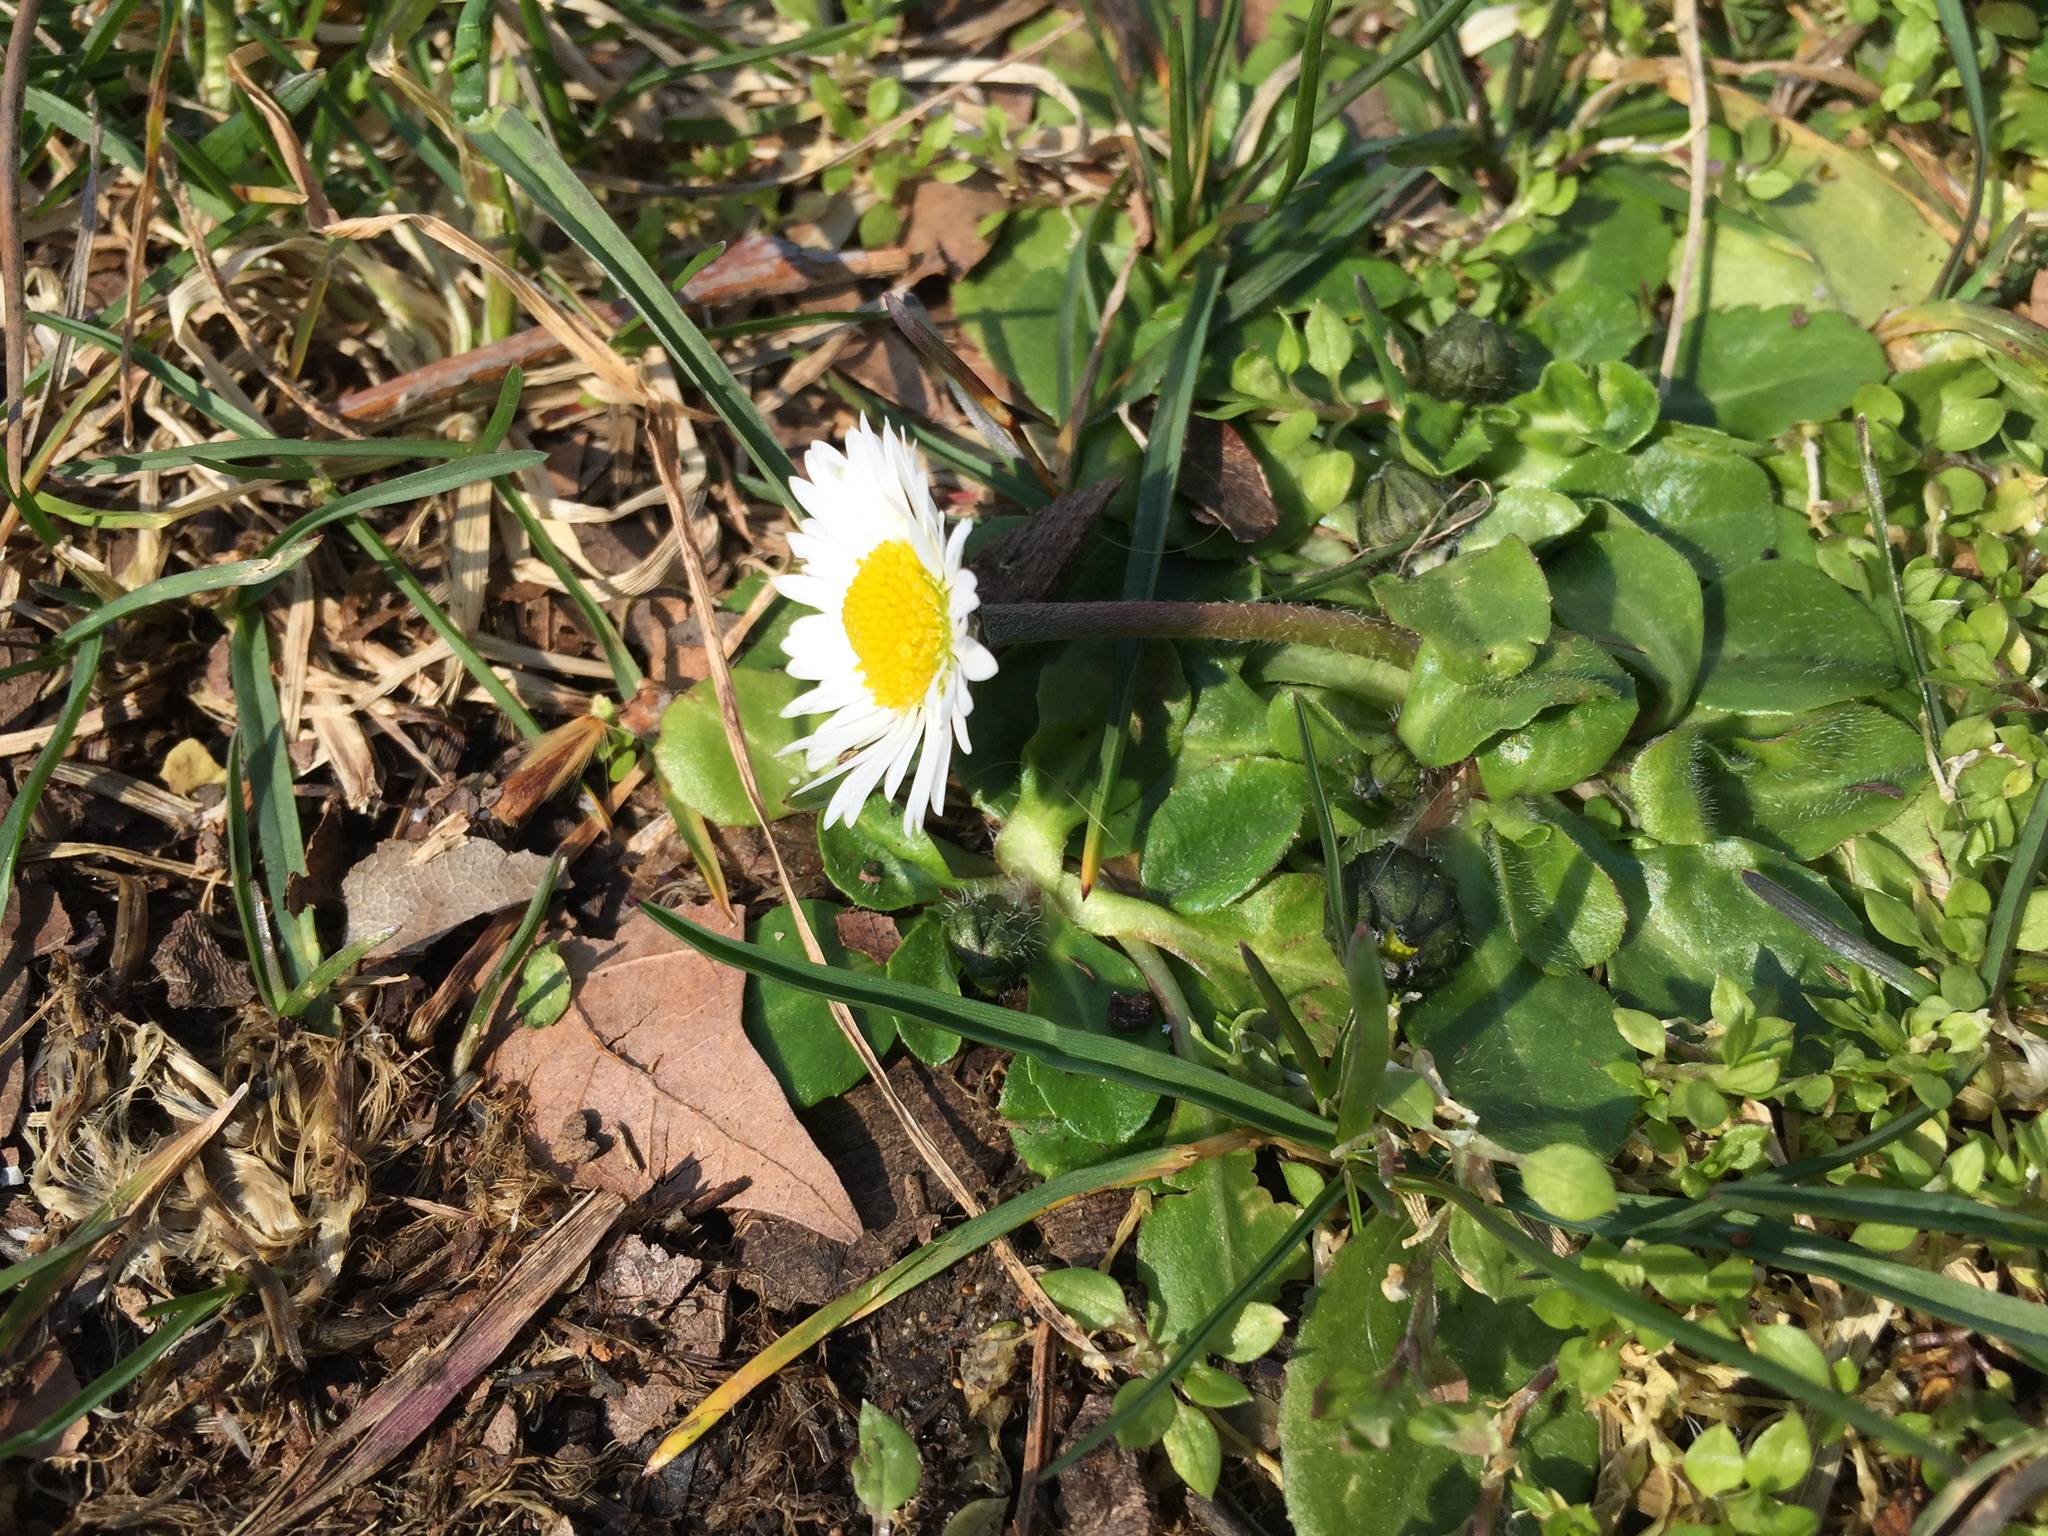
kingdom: Plantae
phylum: Tracheophyta
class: Magnoliopsida
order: Asterales
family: Asteraceae
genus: Bellis
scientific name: Bellis perennis
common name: Lawndaisy
